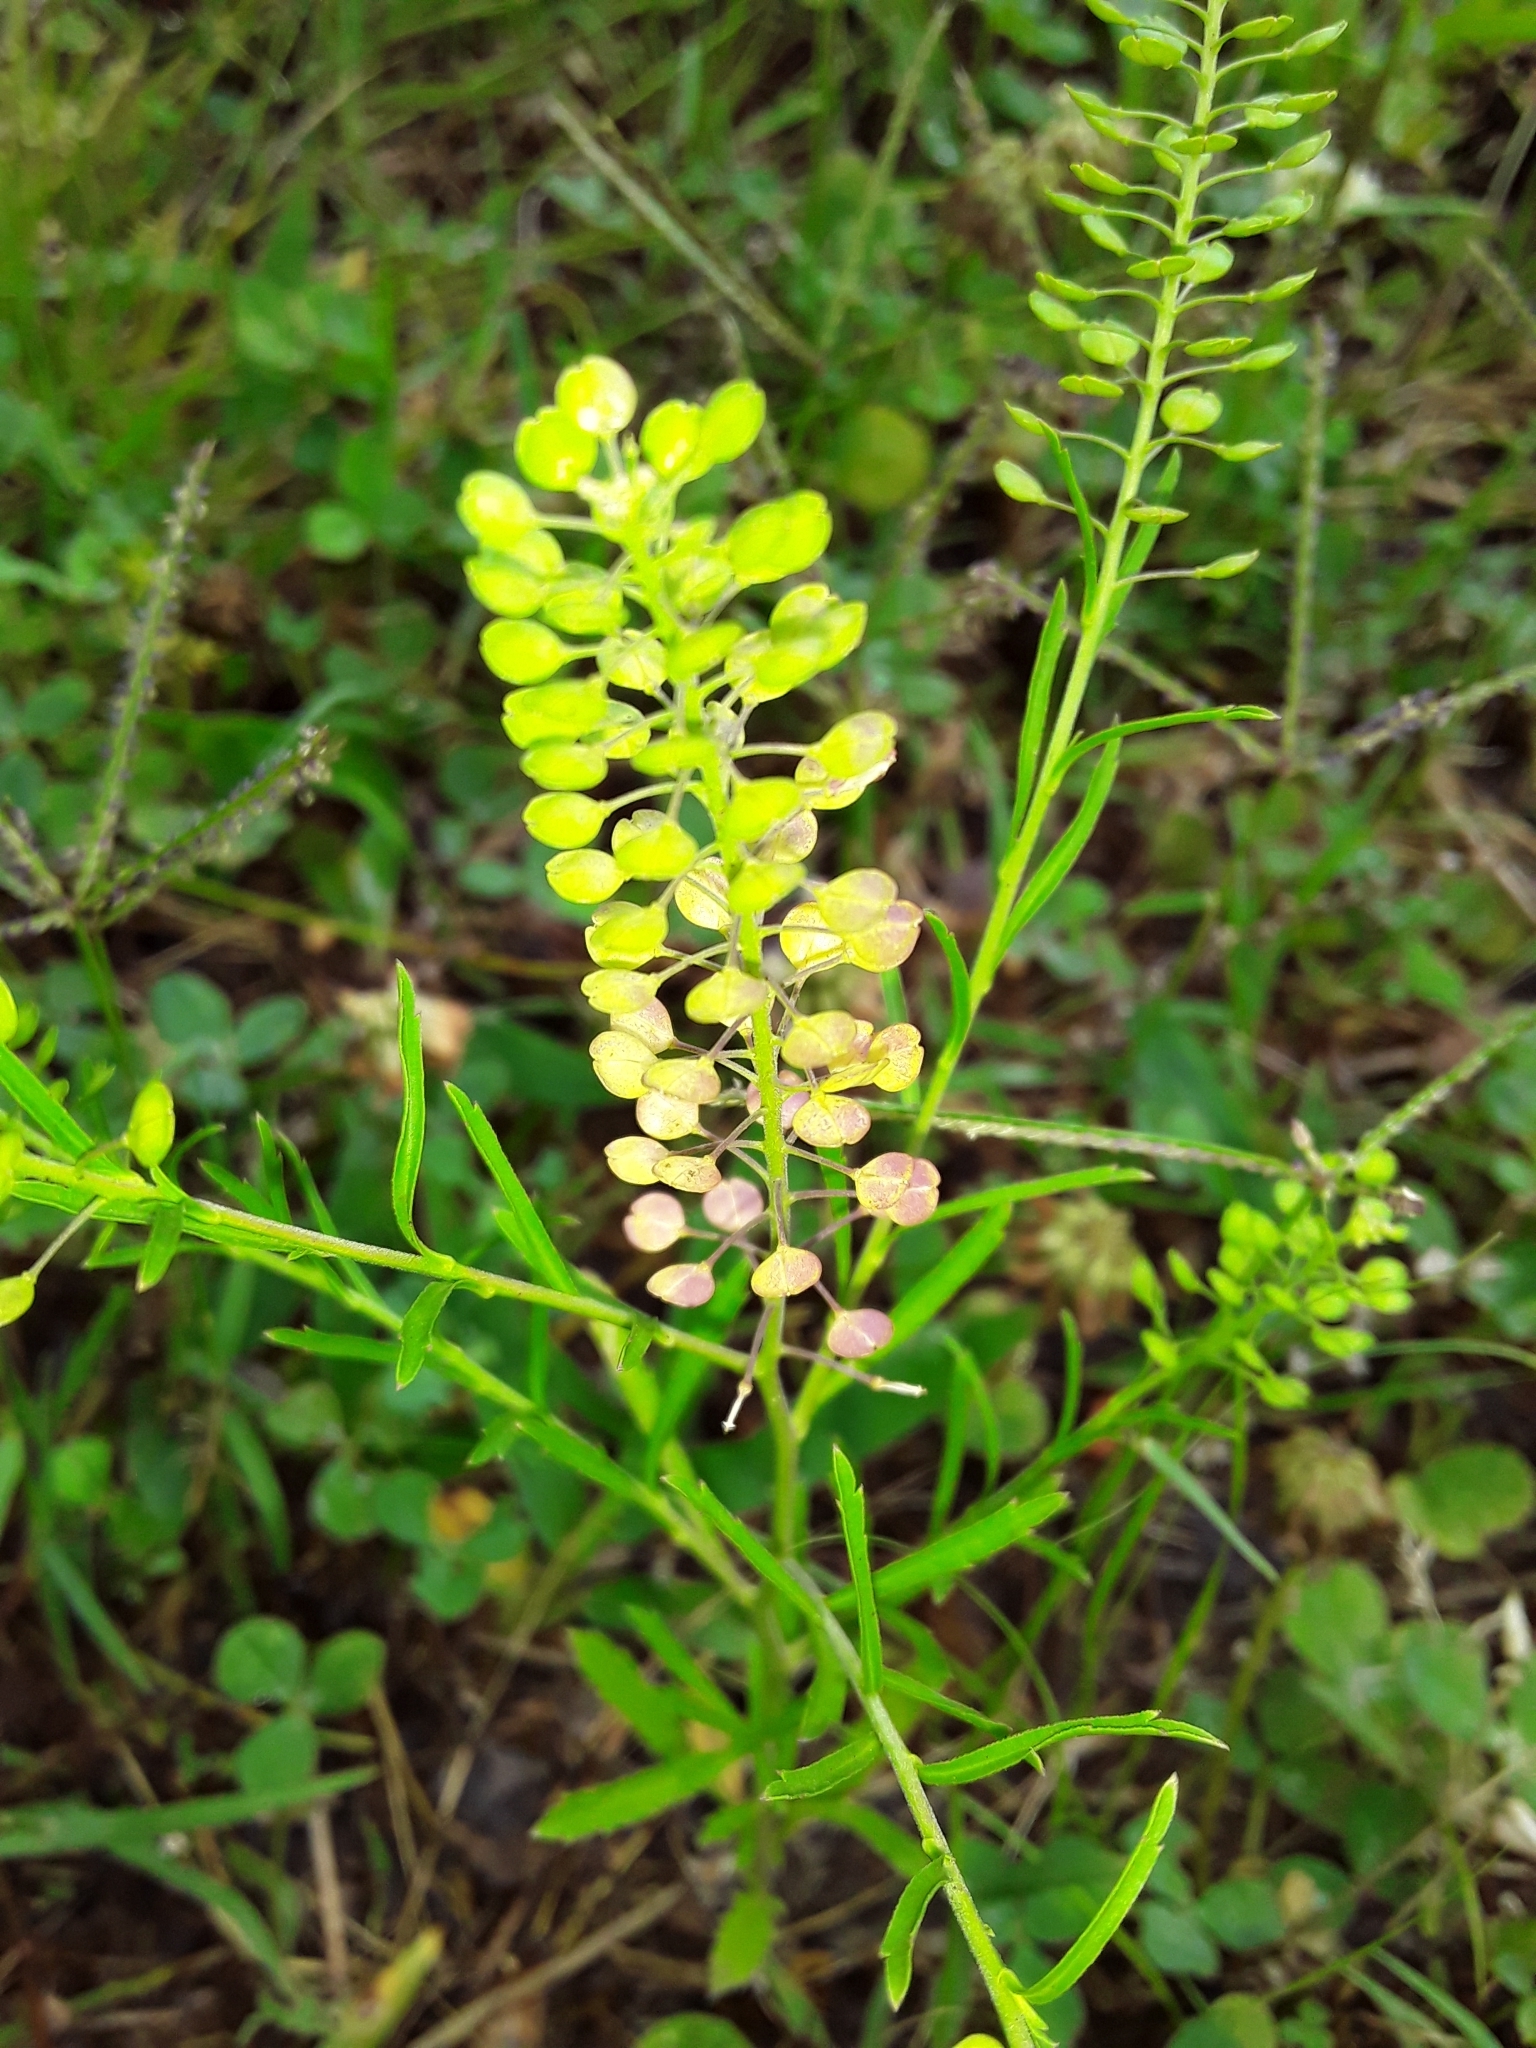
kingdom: Plantae
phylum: Tracheophyta
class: Magnoliopsida
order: Brassicales
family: Brassicaceae
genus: Lepidium
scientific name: Lepidium virginicum
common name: Least pepperwort
